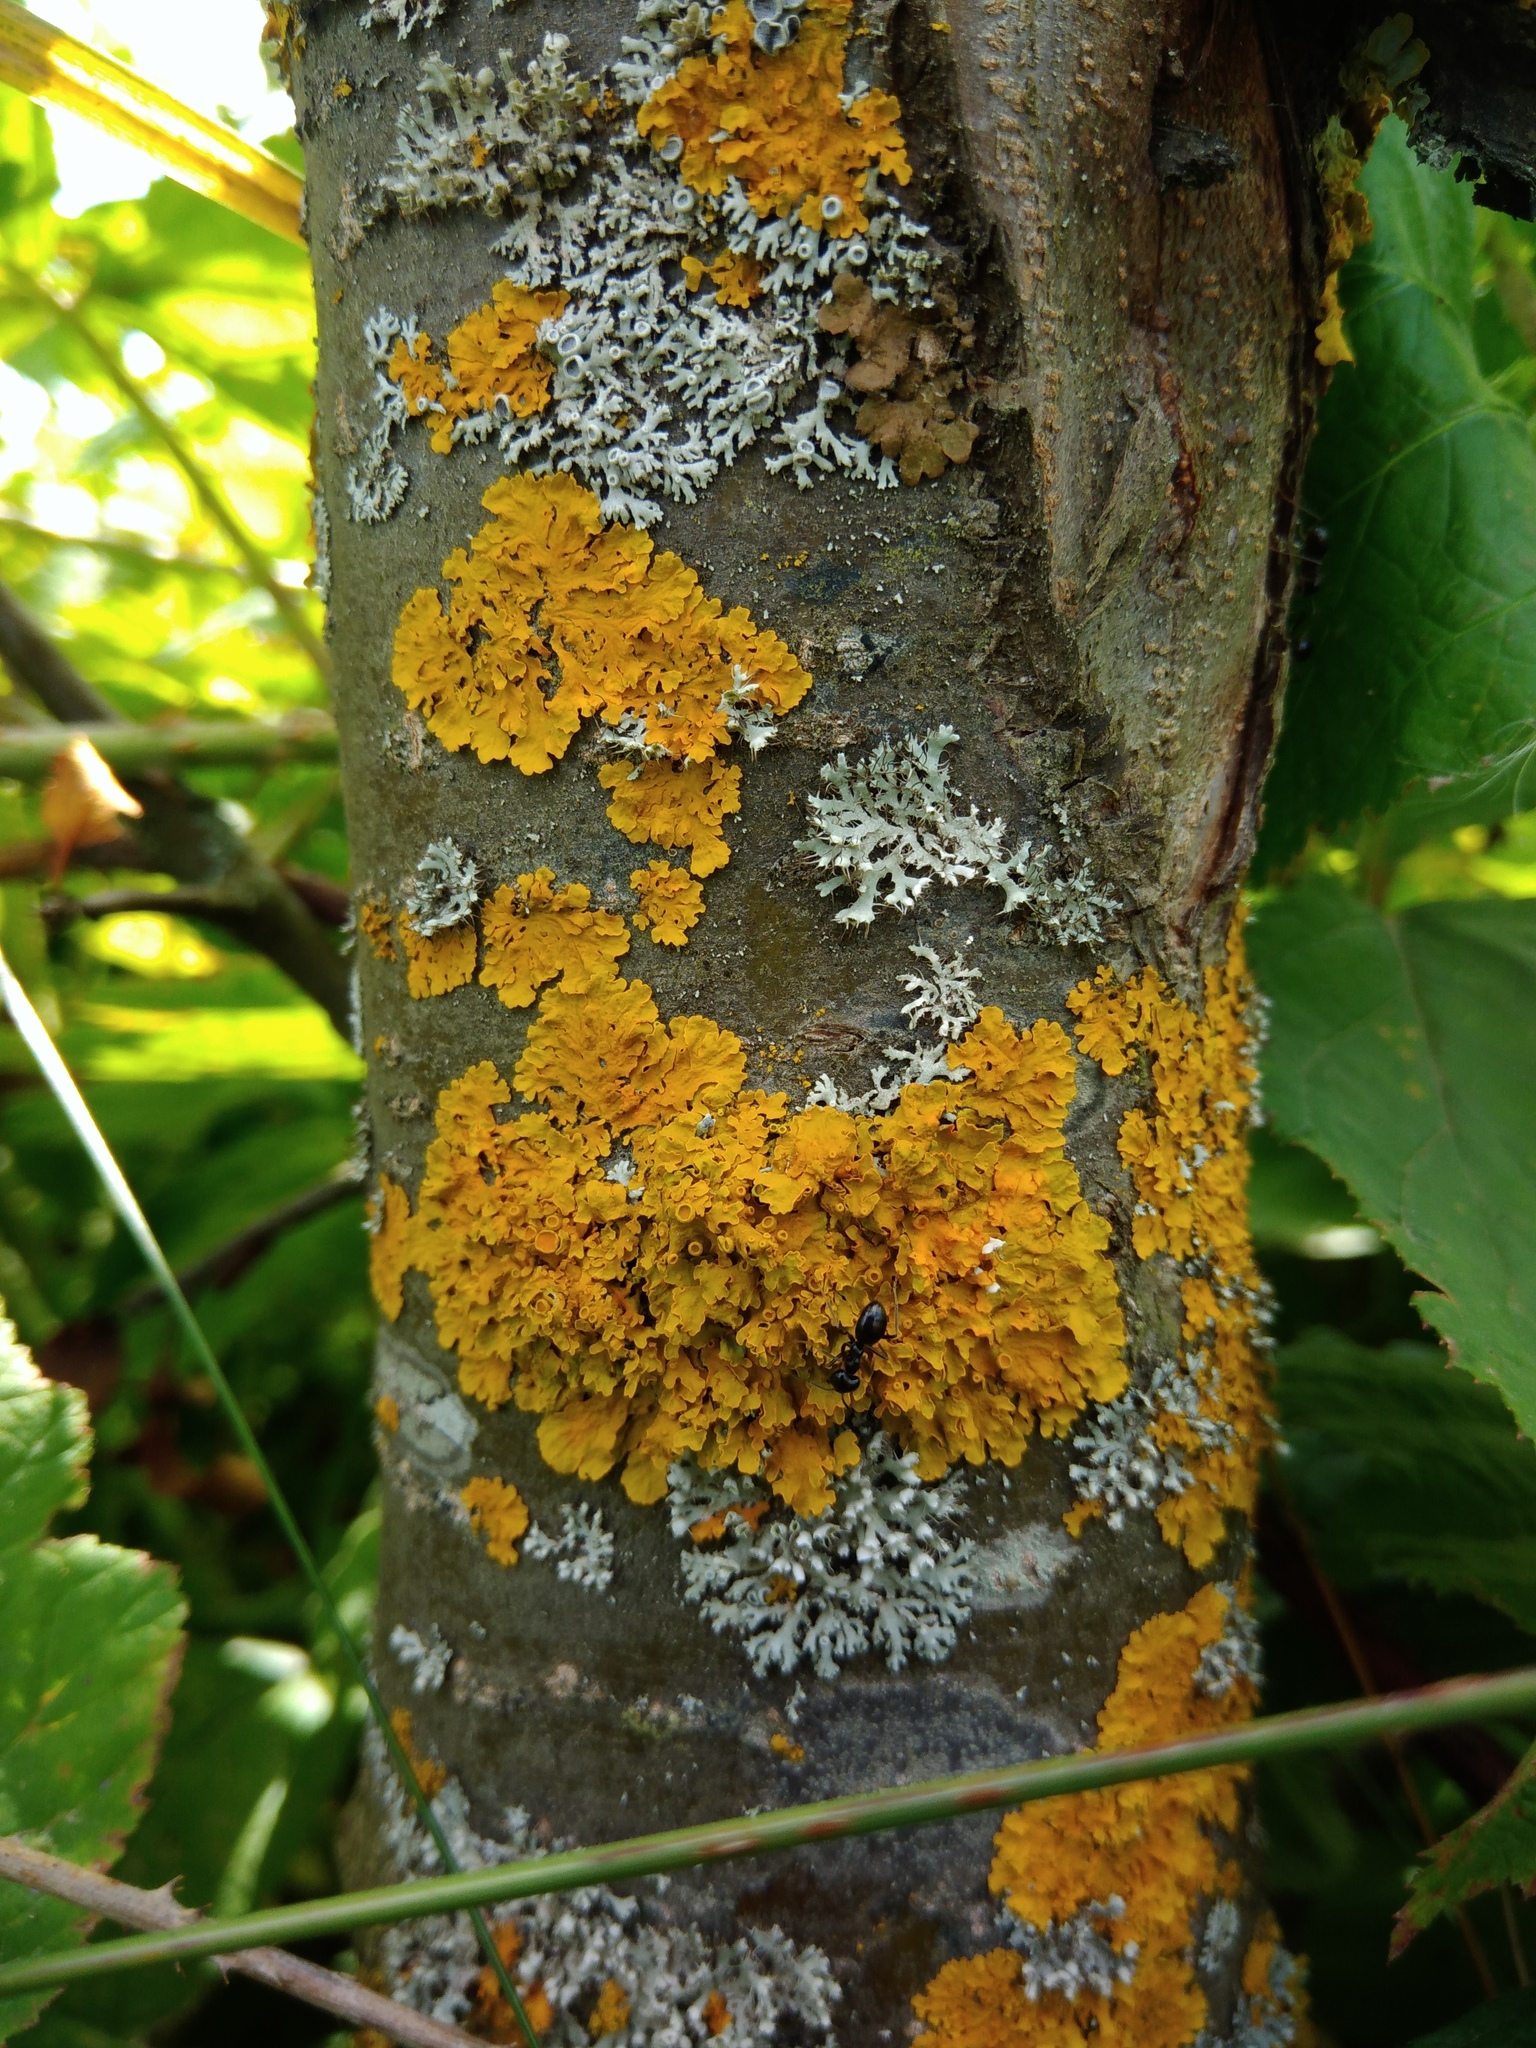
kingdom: Fungi
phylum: Ascomycota
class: Lecanoromycetes
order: Teloschistales
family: Teloschistaceae
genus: Xanthoria
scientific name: Xanthoria parietina
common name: Common orange lichen
